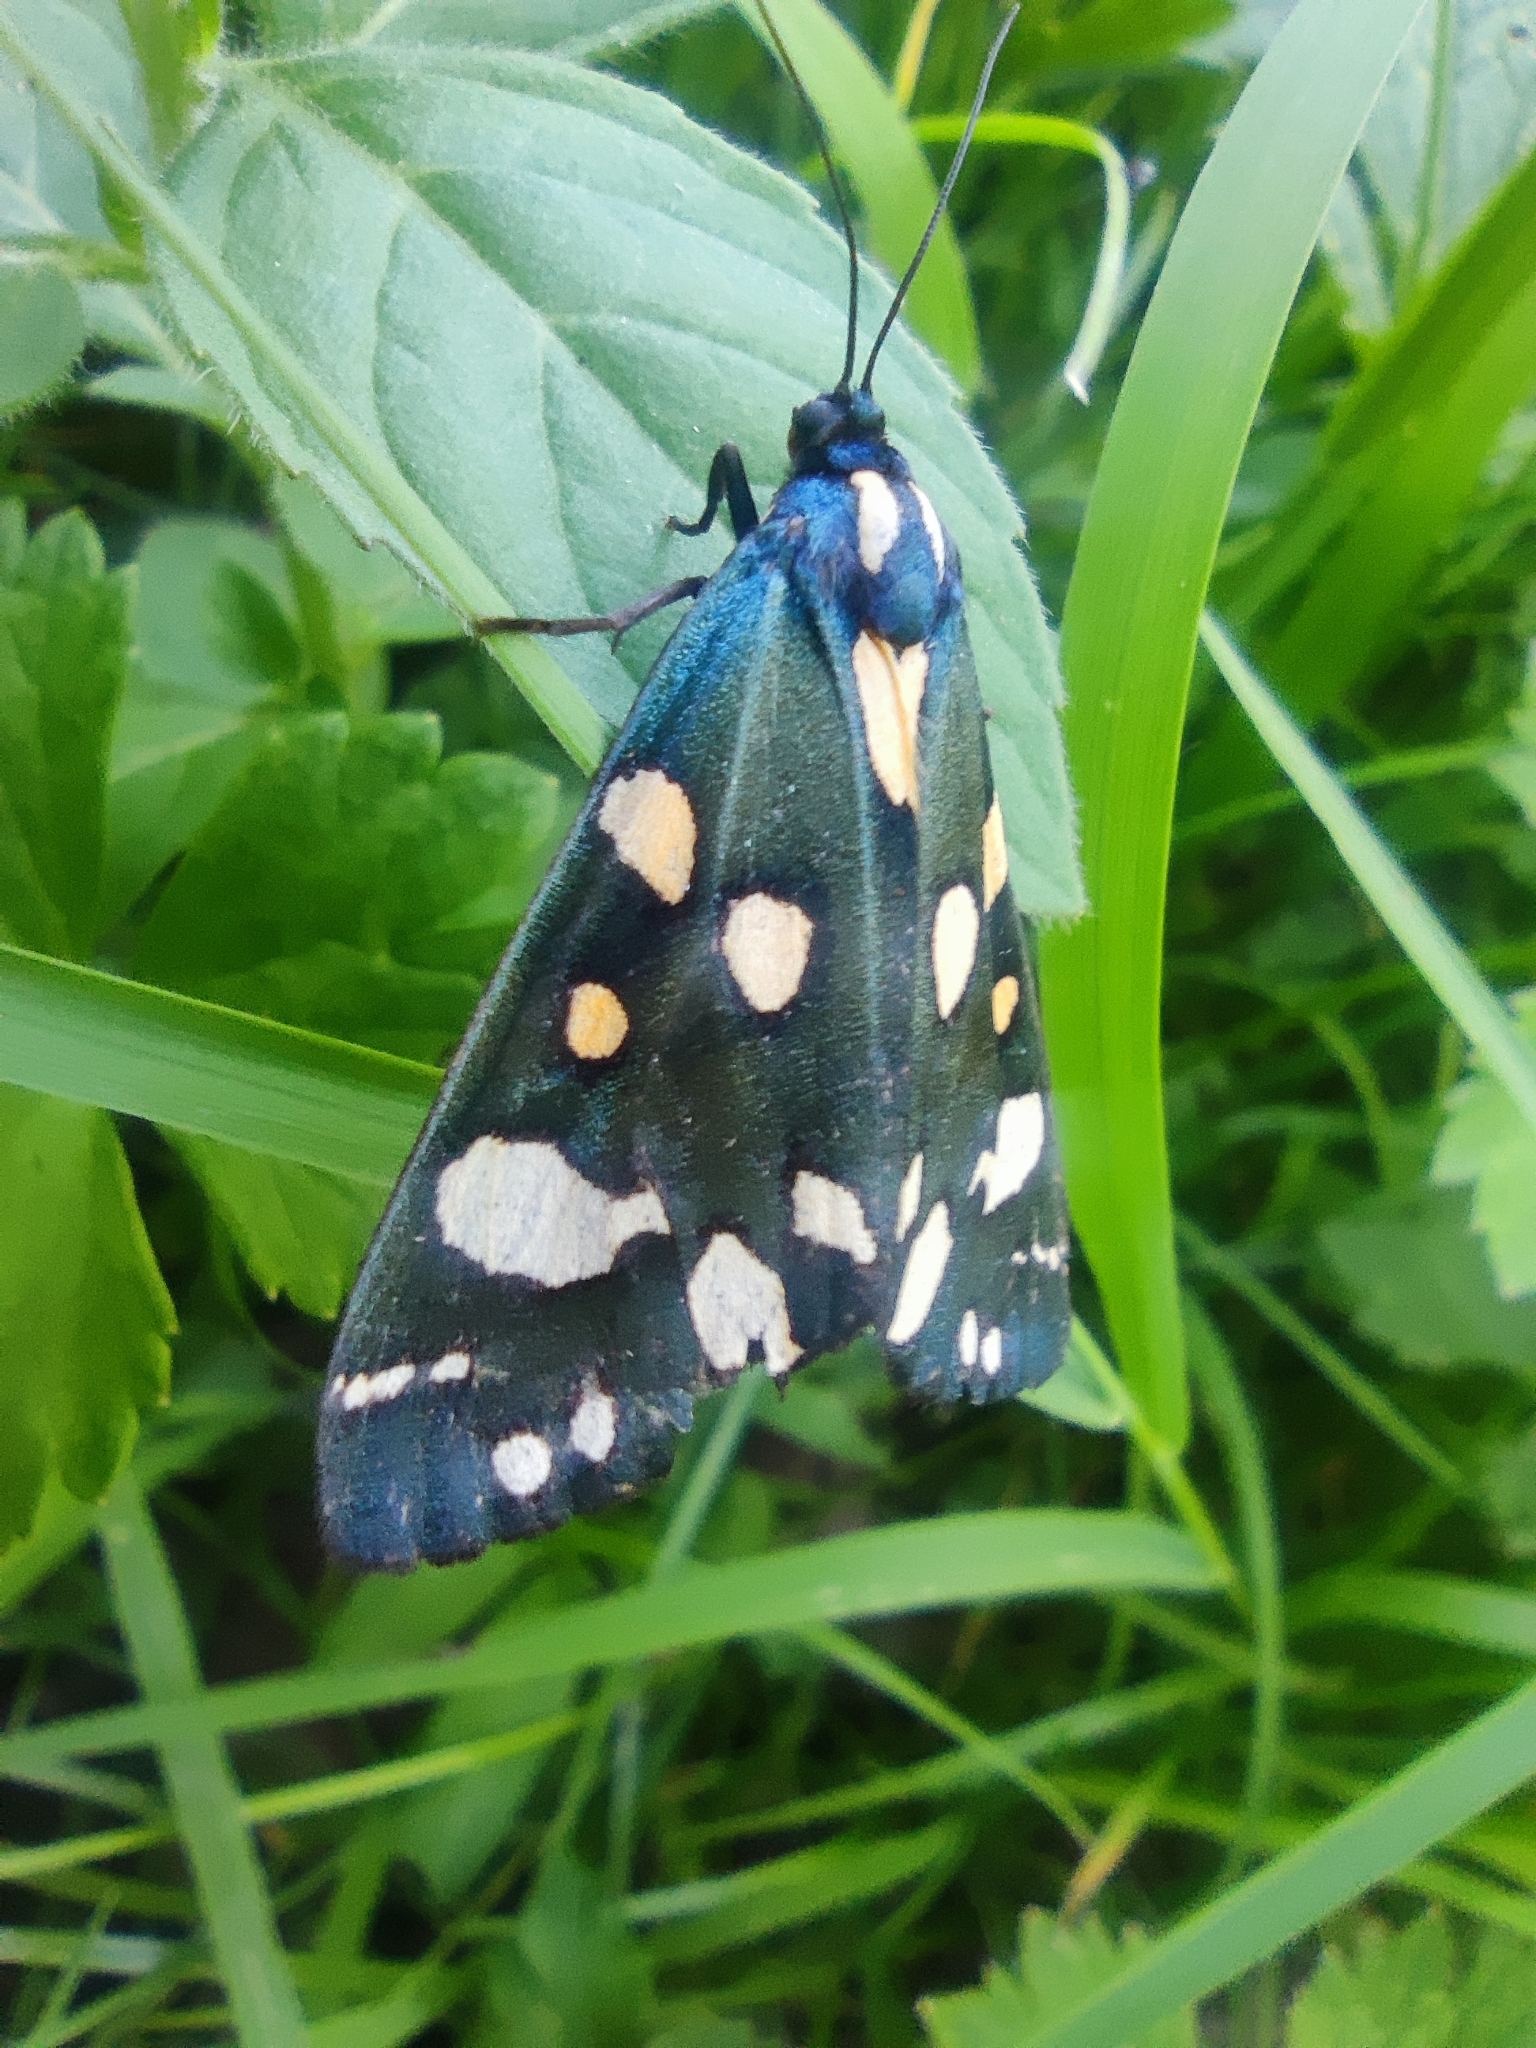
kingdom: Animalia
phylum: Arthropoda
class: Insecta
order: Lepidoptera
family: Erebidae
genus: Callimorpha
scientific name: Callimorpha dominula
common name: Scarlet tiger
